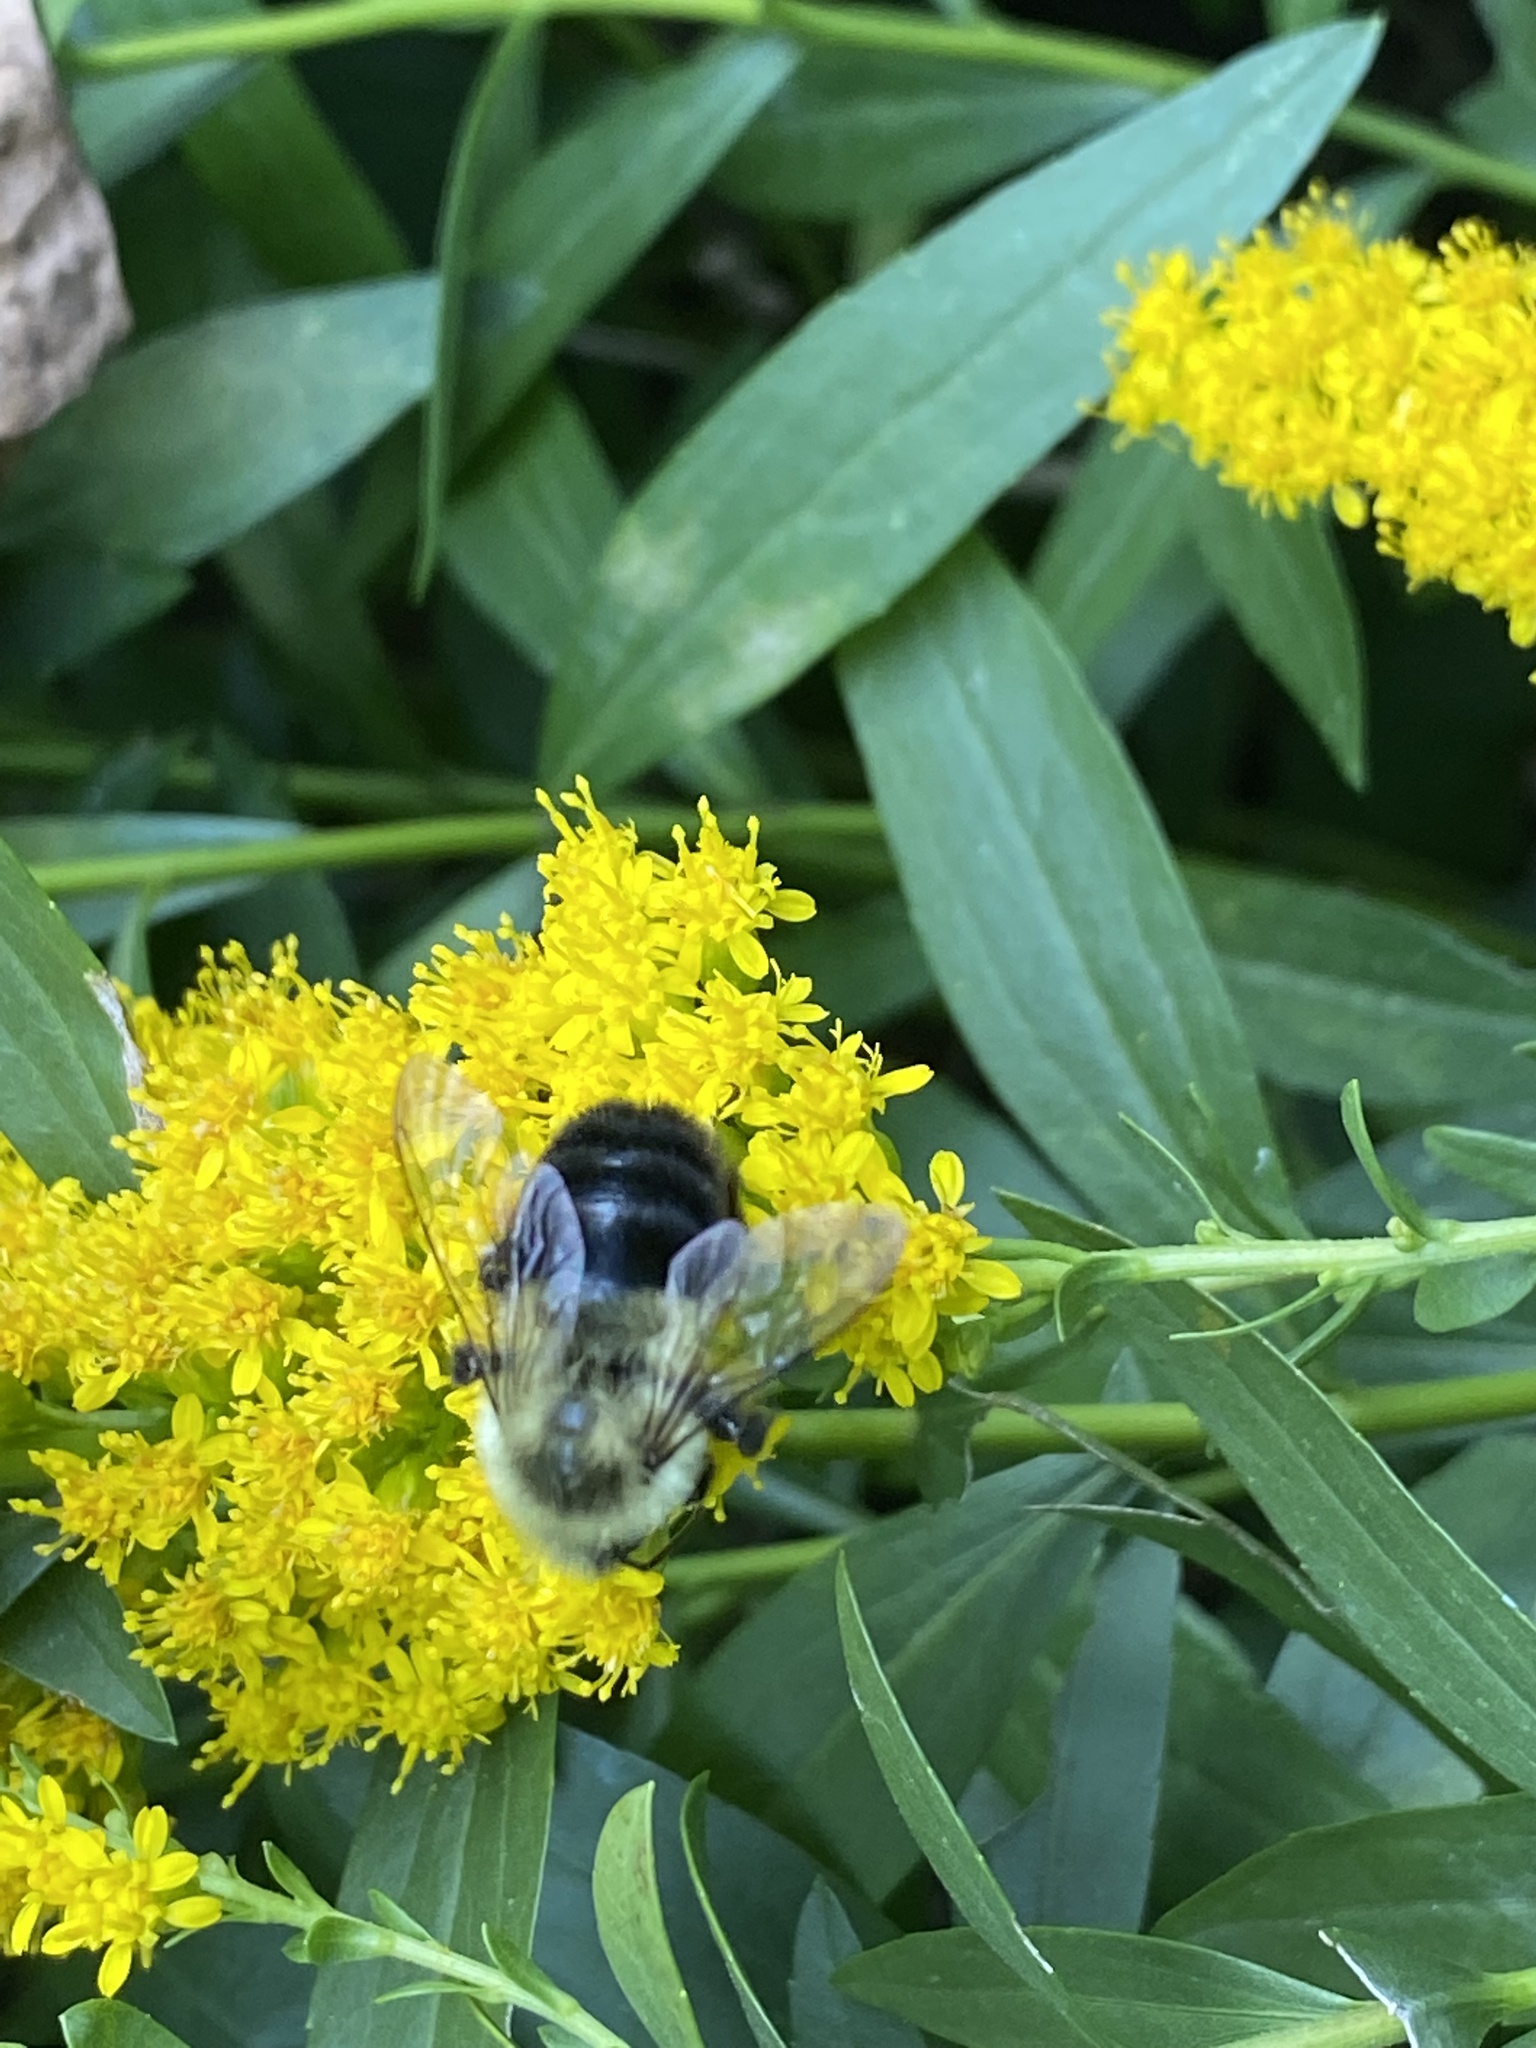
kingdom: Animalia
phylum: Arthropoda
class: Insecta
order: Hymenoptera
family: Apidae
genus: Bombus
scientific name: Bombus impatiens
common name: Common eastern bumble bee
